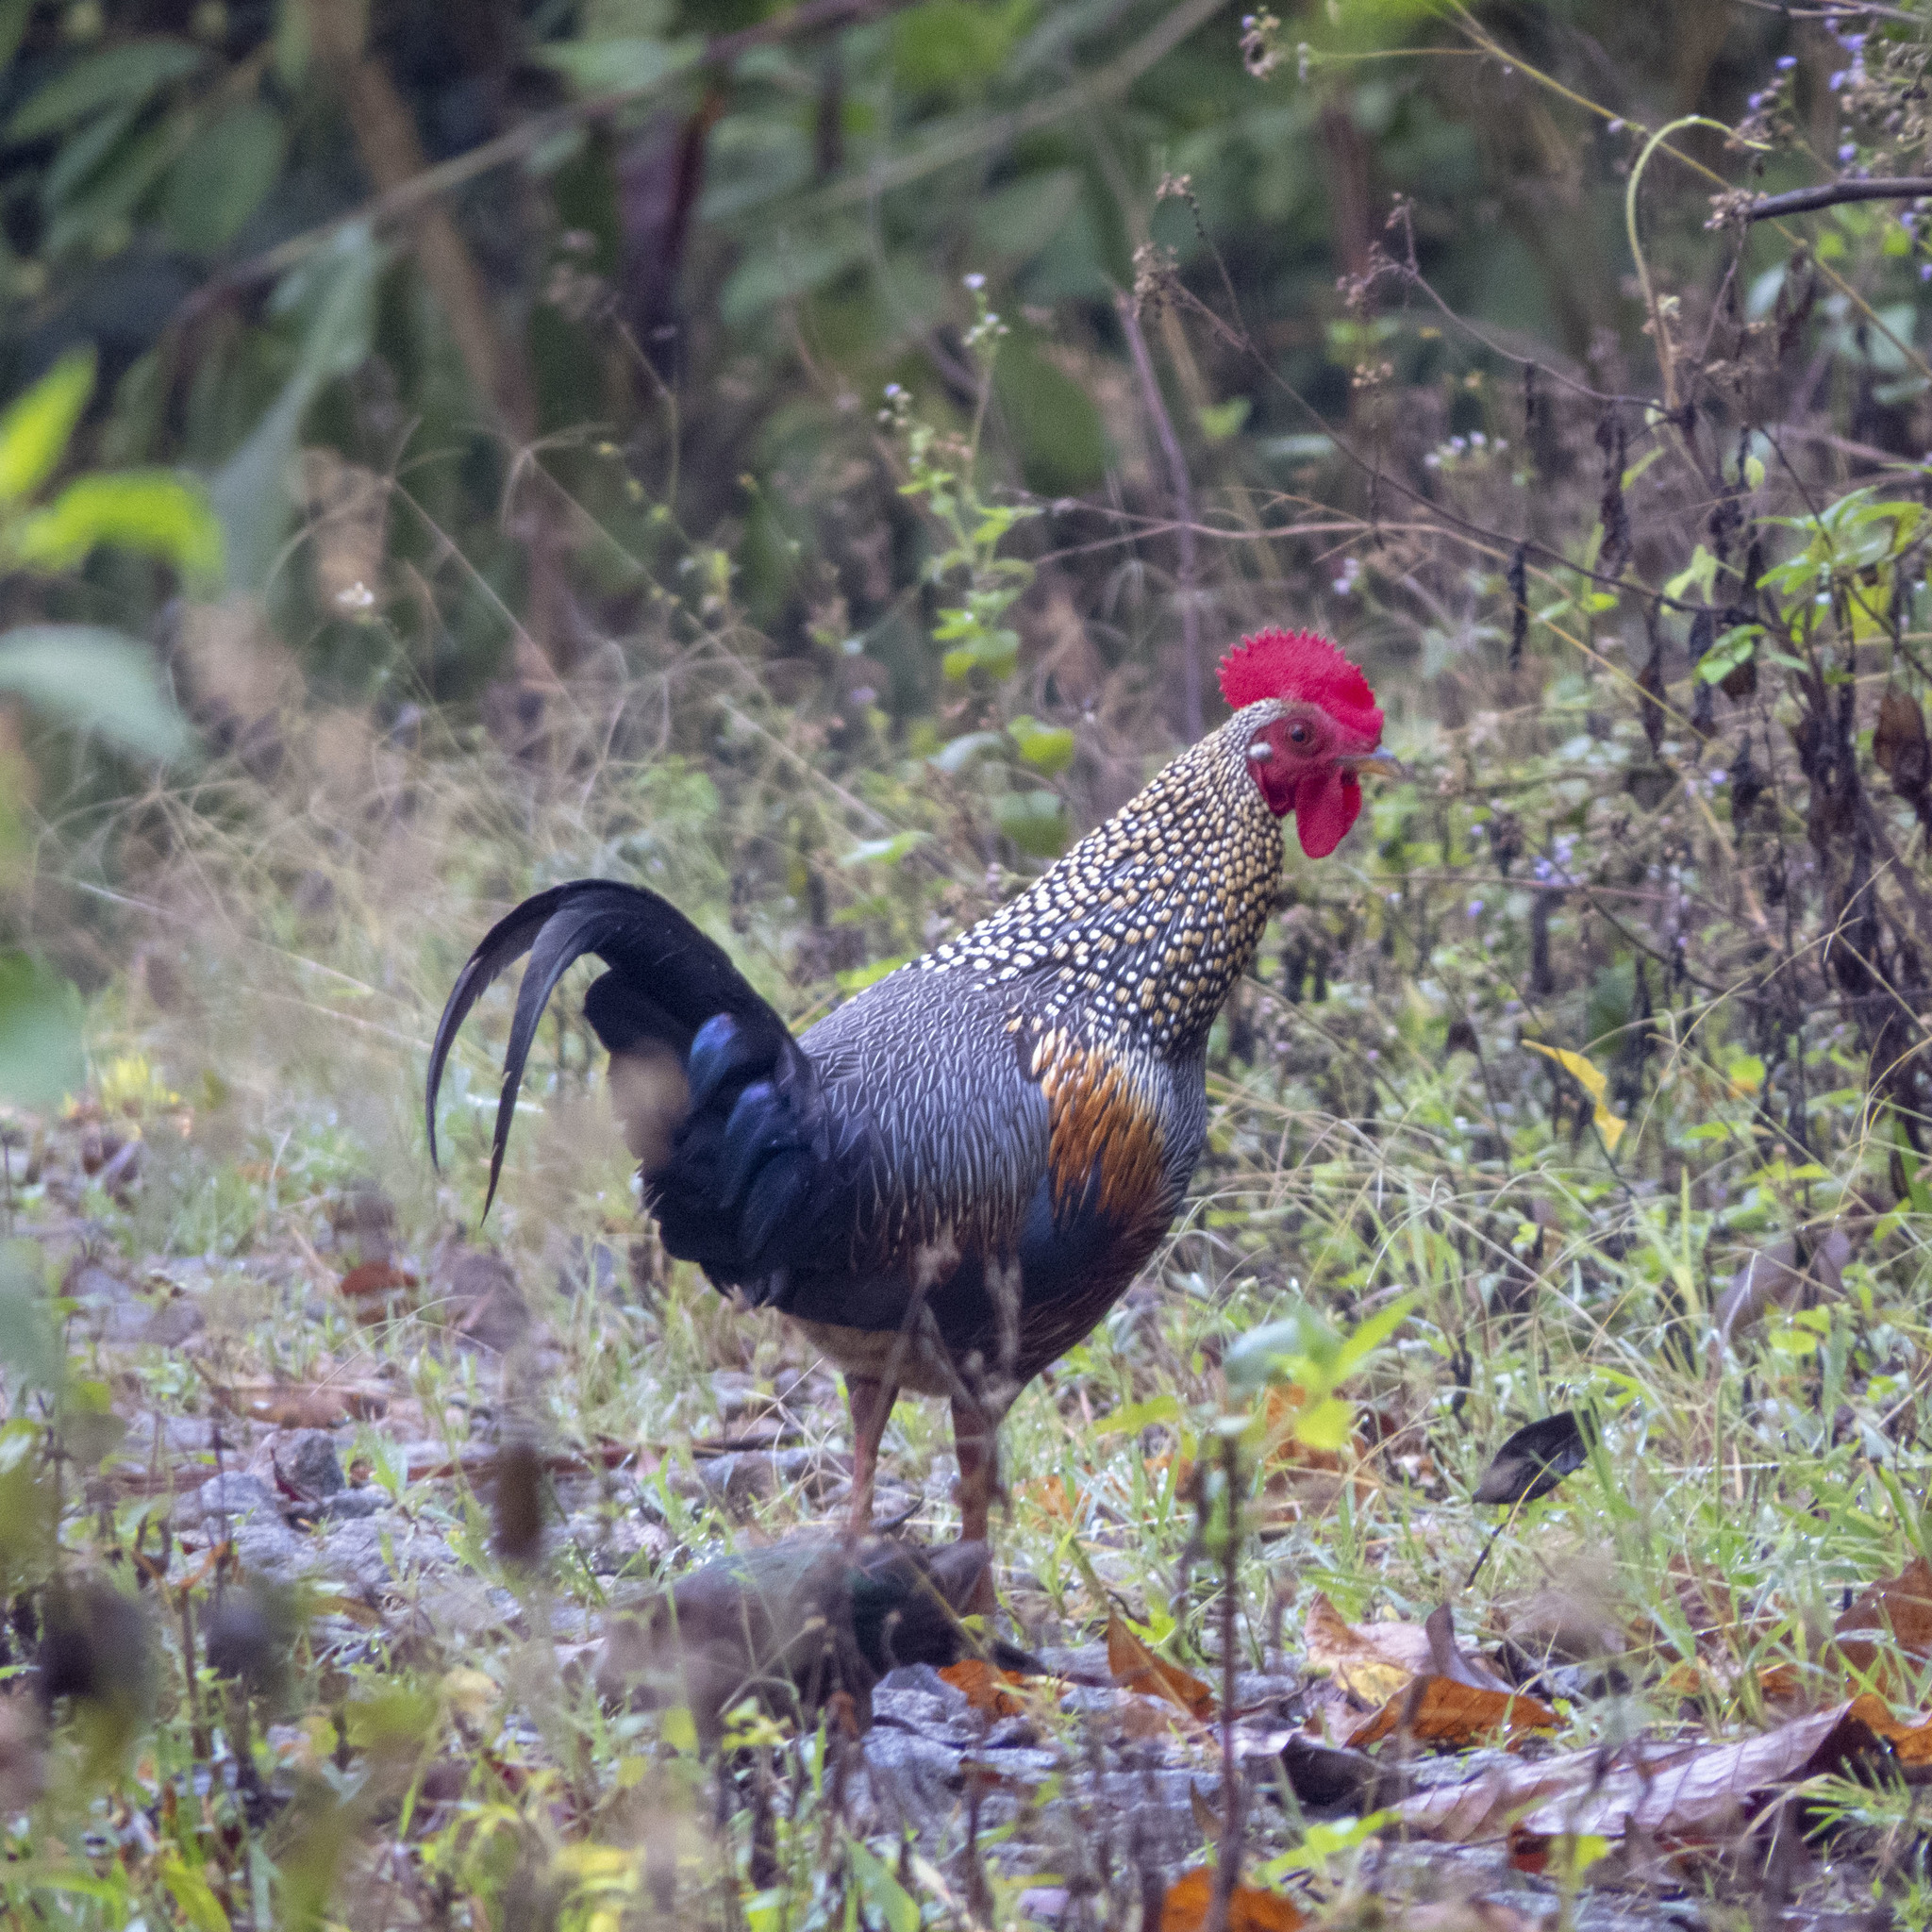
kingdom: Animalia
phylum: Chordata
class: Aves
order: Galliformes
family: Phasianidae
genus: Gallus
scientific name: Gallus sonneratii
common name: Grey junglefowl
